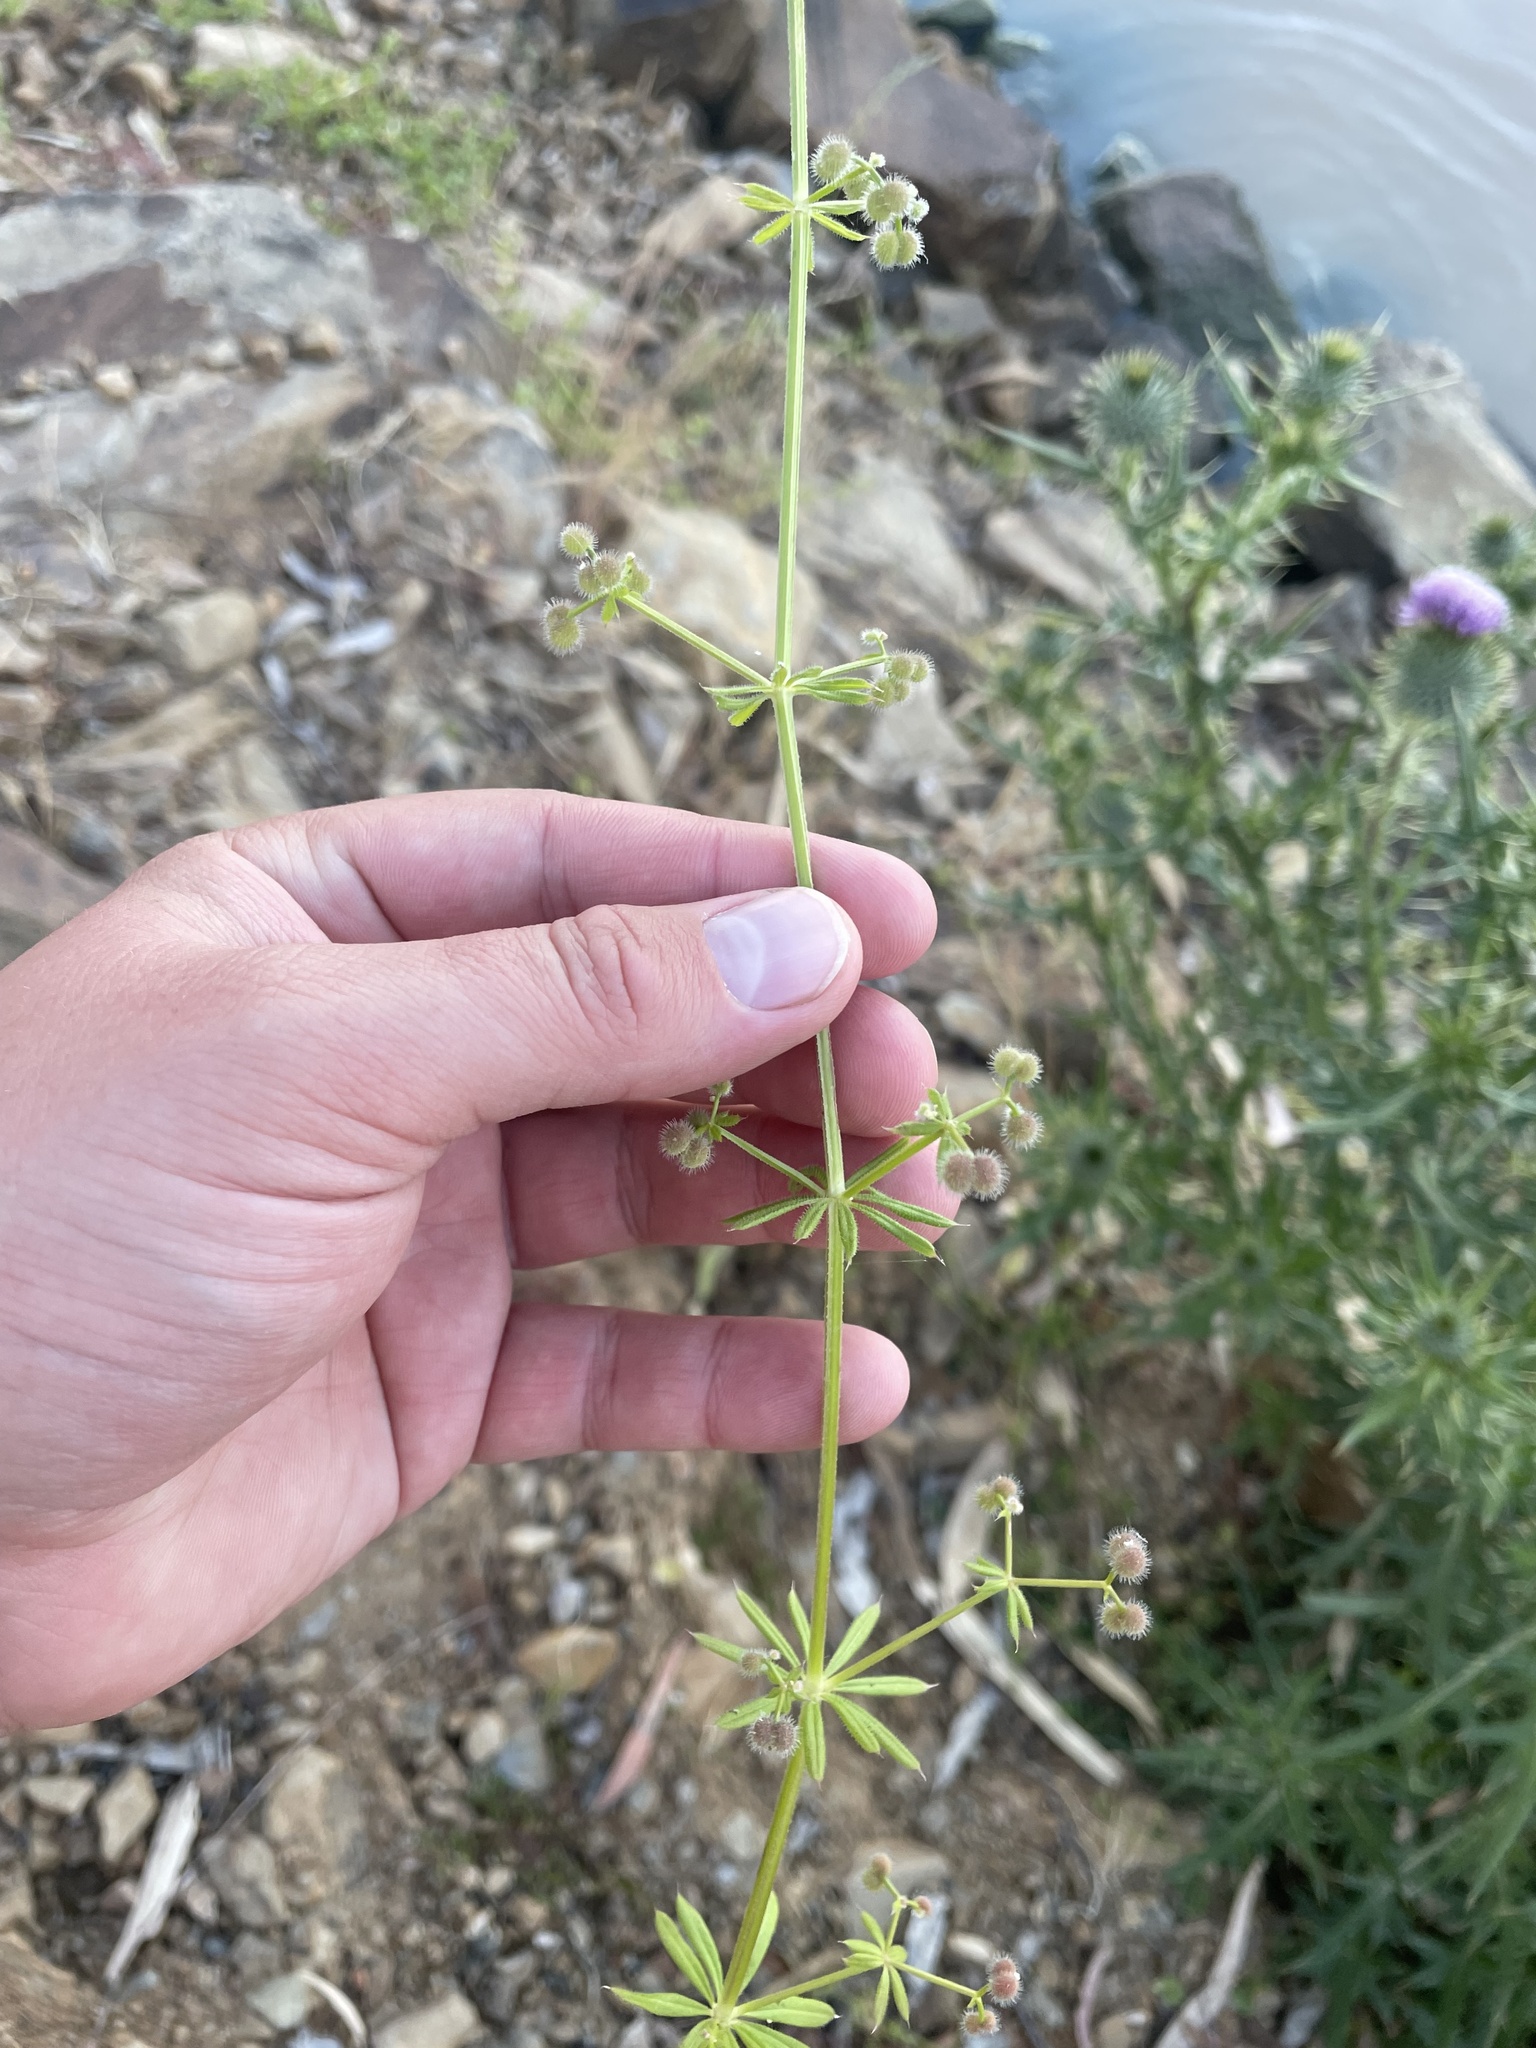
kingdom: Plantae
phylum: Tracheophyta
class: Magnoliopsida
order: Gentianales
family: Rubiaceae
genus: Galium
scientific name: Galium aparine
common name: Cleavers
